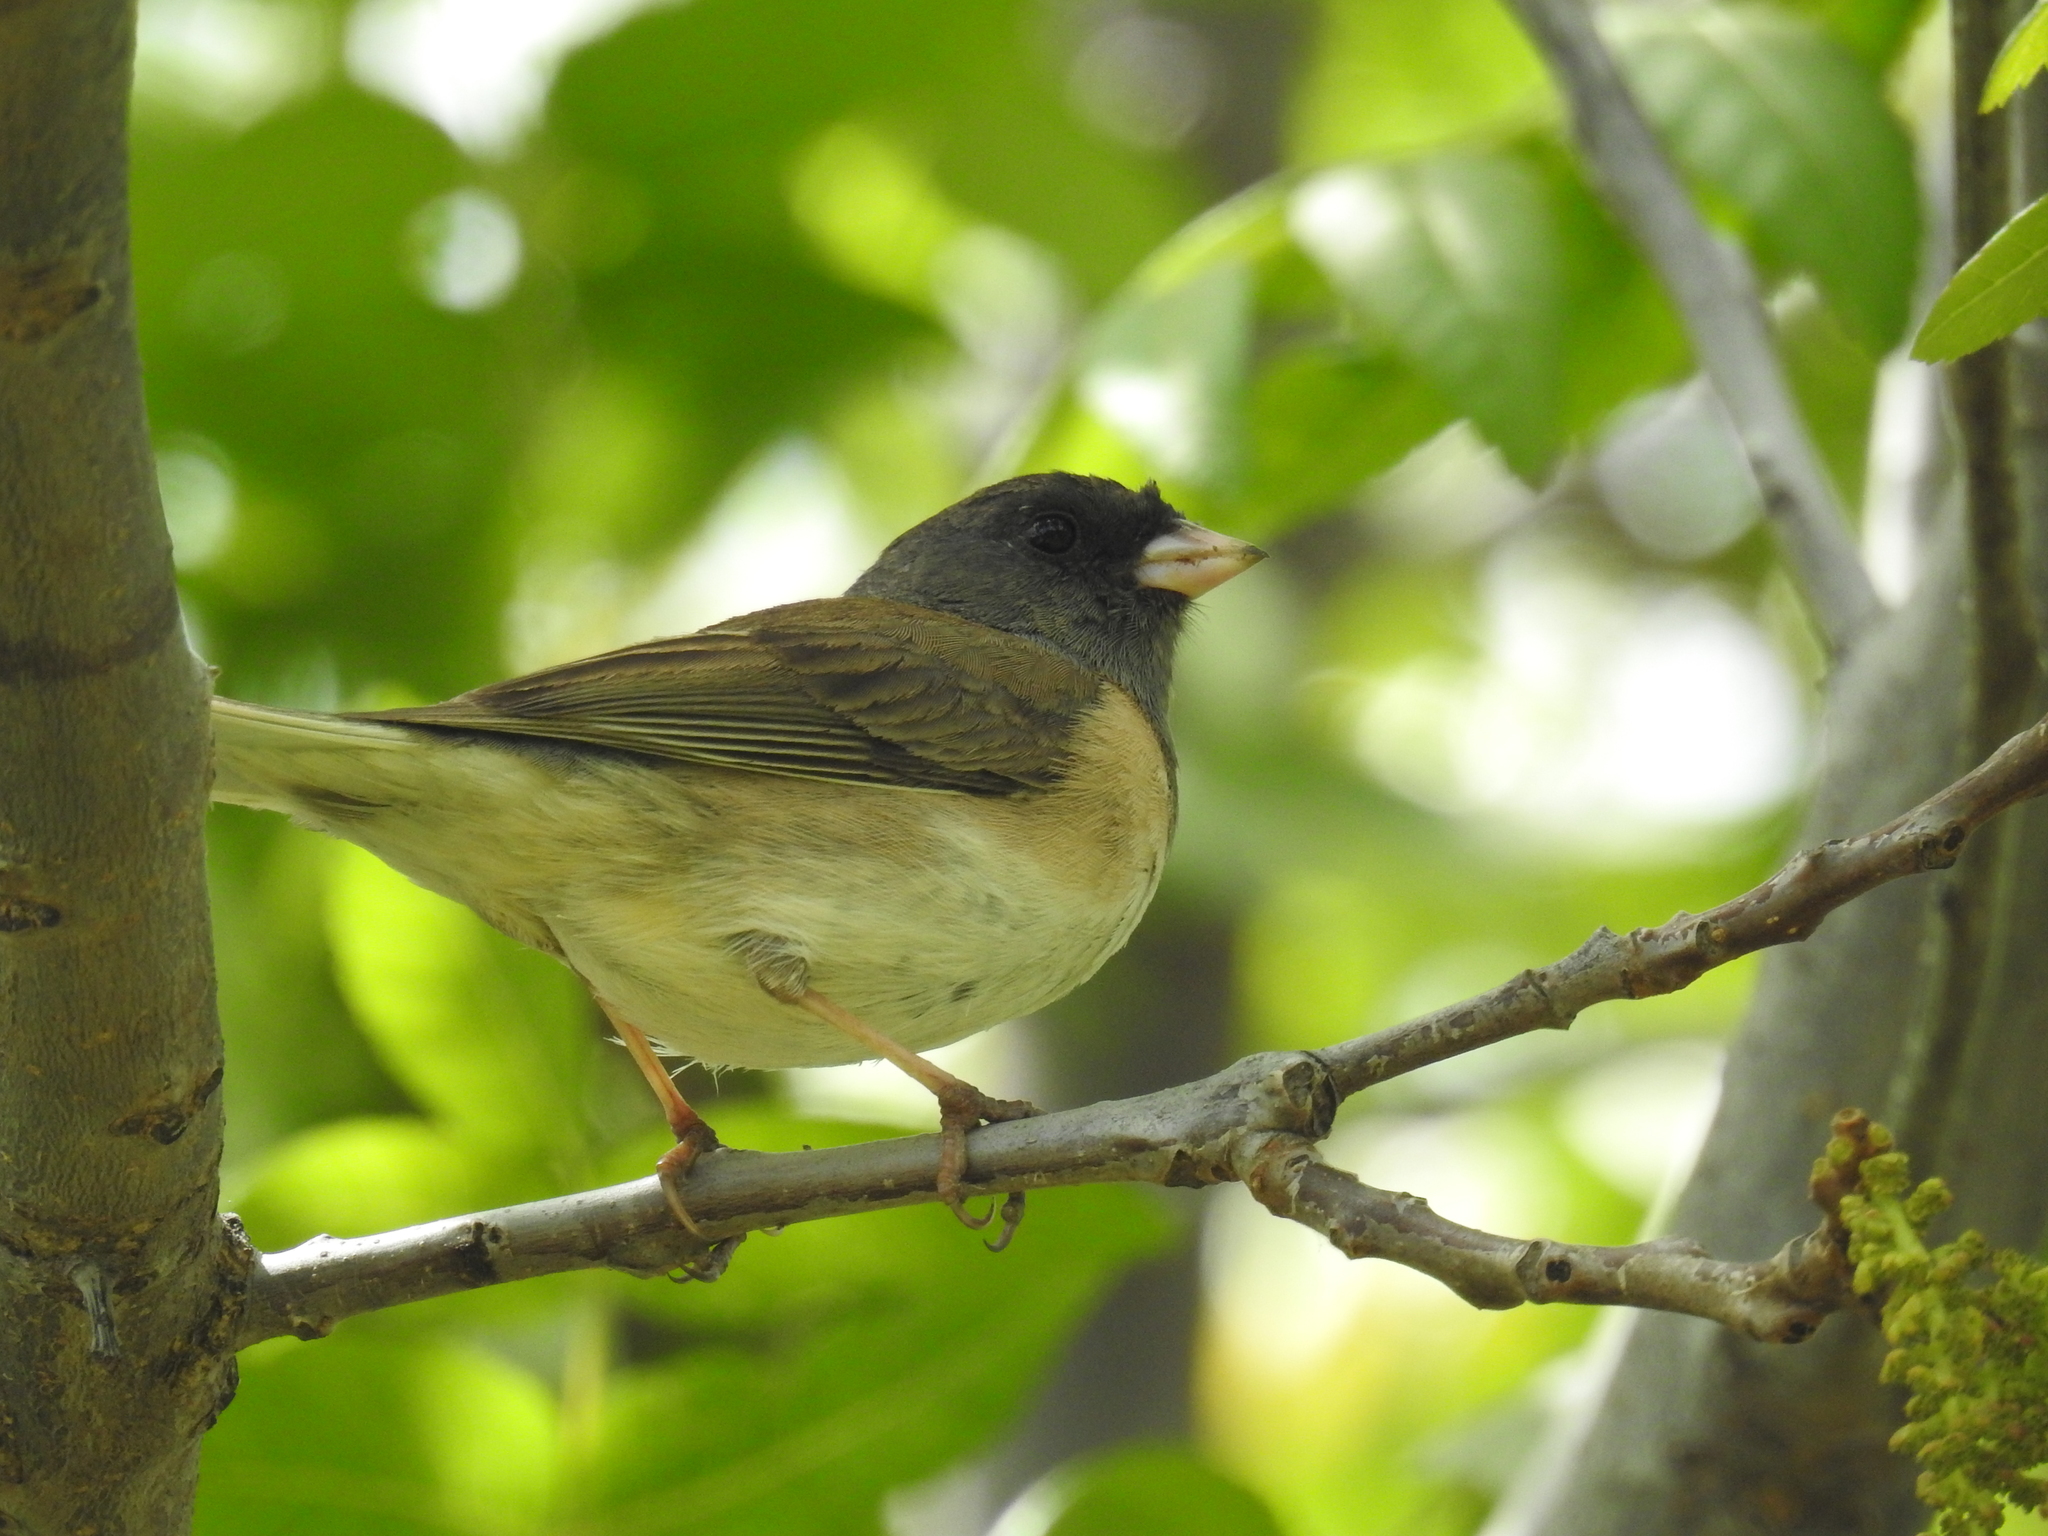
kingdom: Animalia
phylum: Chordata
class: Aves
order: Passeriformes
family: Passerellidae
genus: Junco
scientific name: Junco hyemalis
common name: Dark-eyed junco
